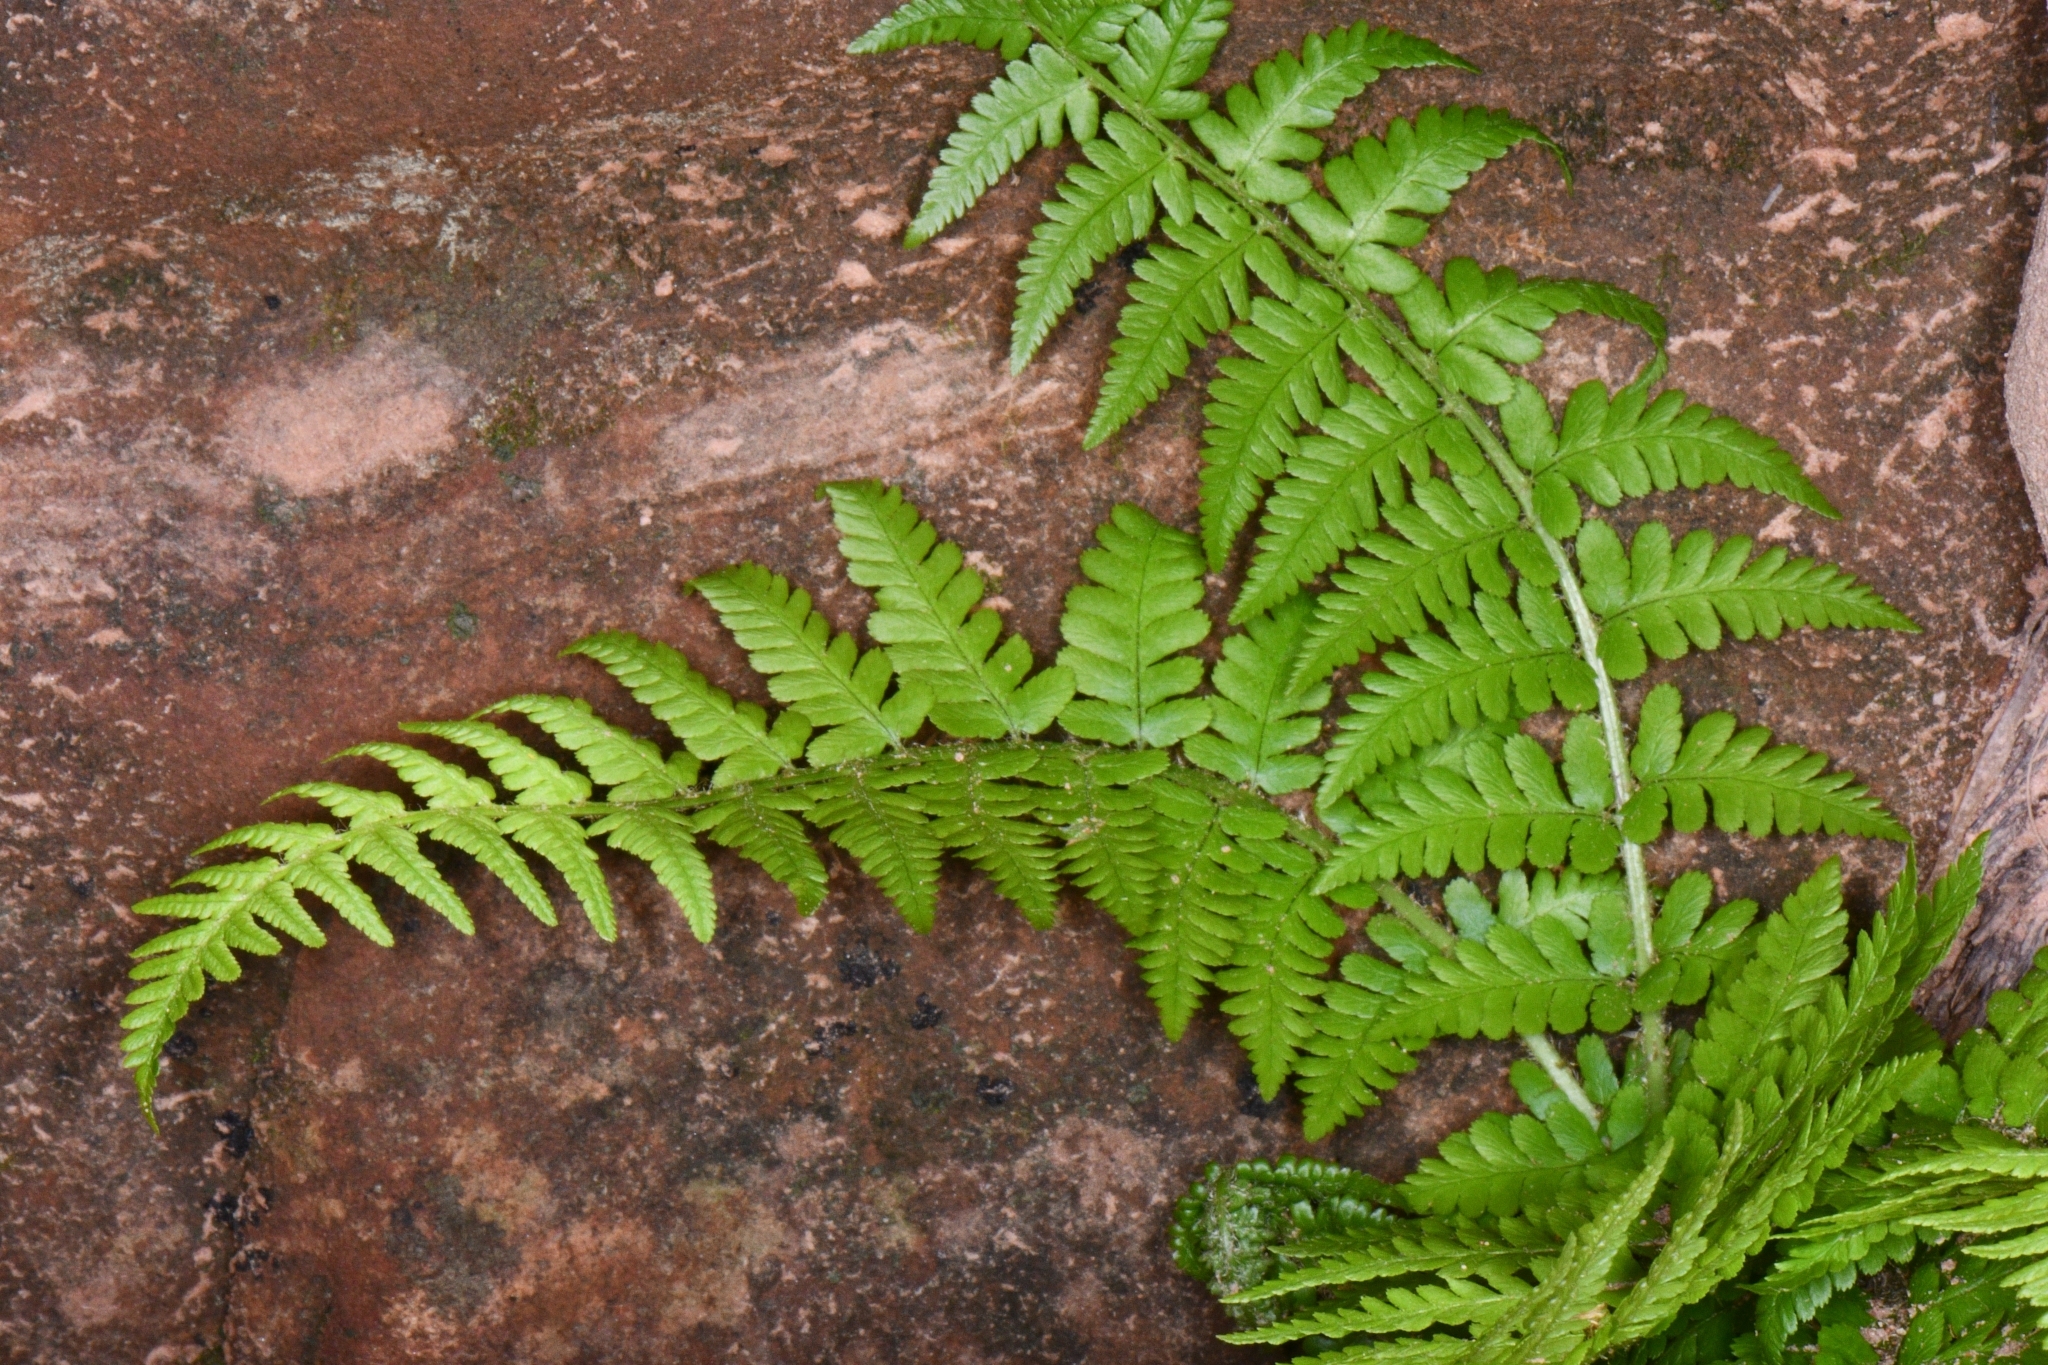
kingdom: Plantae
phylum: Tracheophyta
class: Polypodiopsida
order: Polypodiales
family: Dryopteridaceae
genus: Dryopteris
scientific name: Dryopteris filix-mas
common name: Male fern
